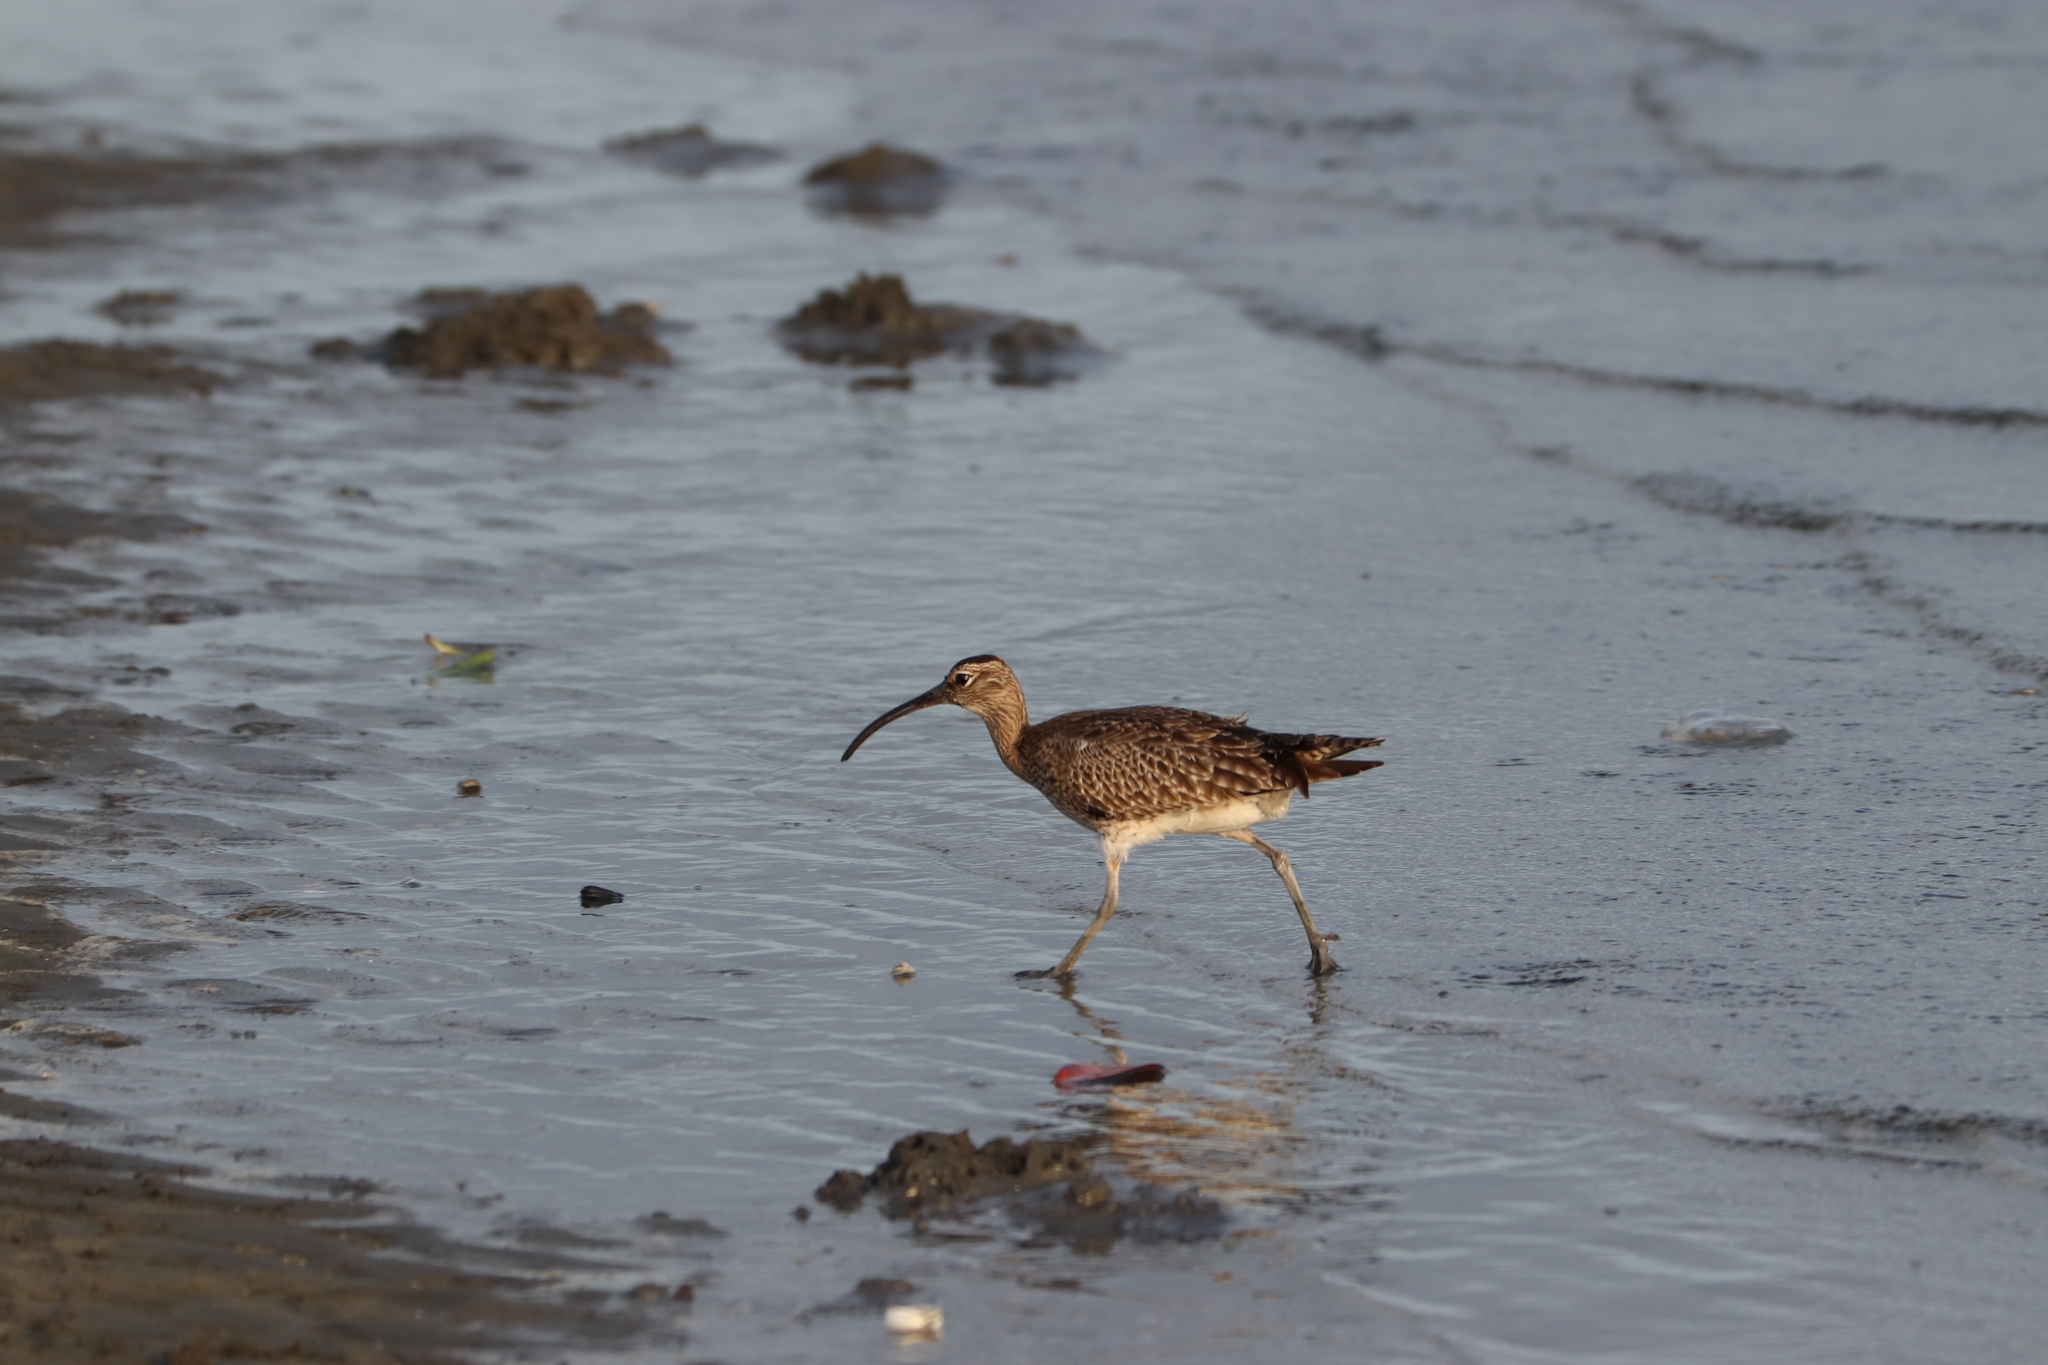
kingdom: Animalia
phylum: Chordata
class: Aves
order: Charadriiformes
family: Scolopacidae
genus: Numenius
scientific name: Numenius phaeopus
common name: Whimbrel
